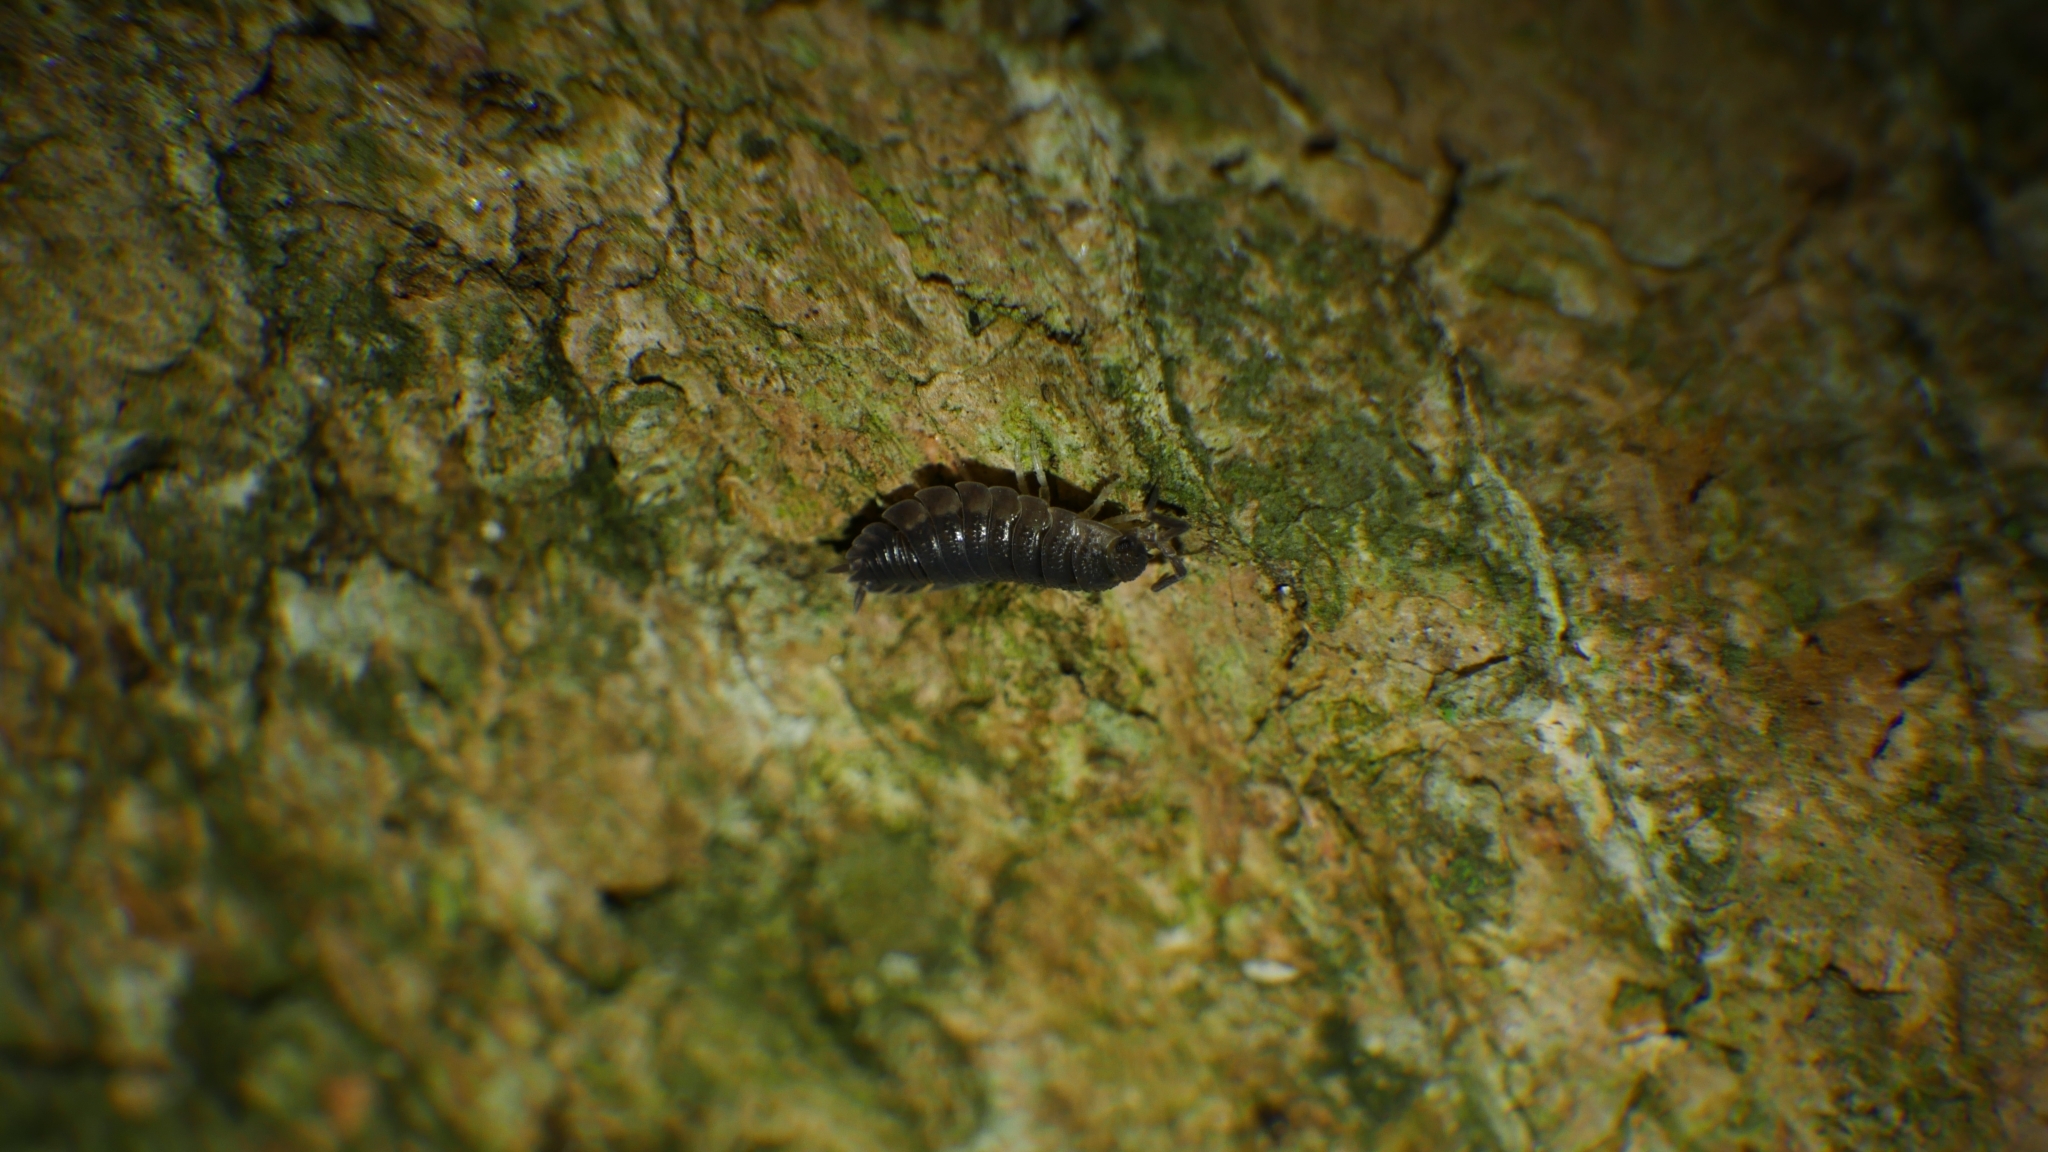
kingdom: Animalia
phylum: Arthropoda
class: Malacostraca
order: Isopoda
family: Porcellionidae
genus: Porcellio
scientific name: Porcellio scaber
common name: Common rough woodlouse
